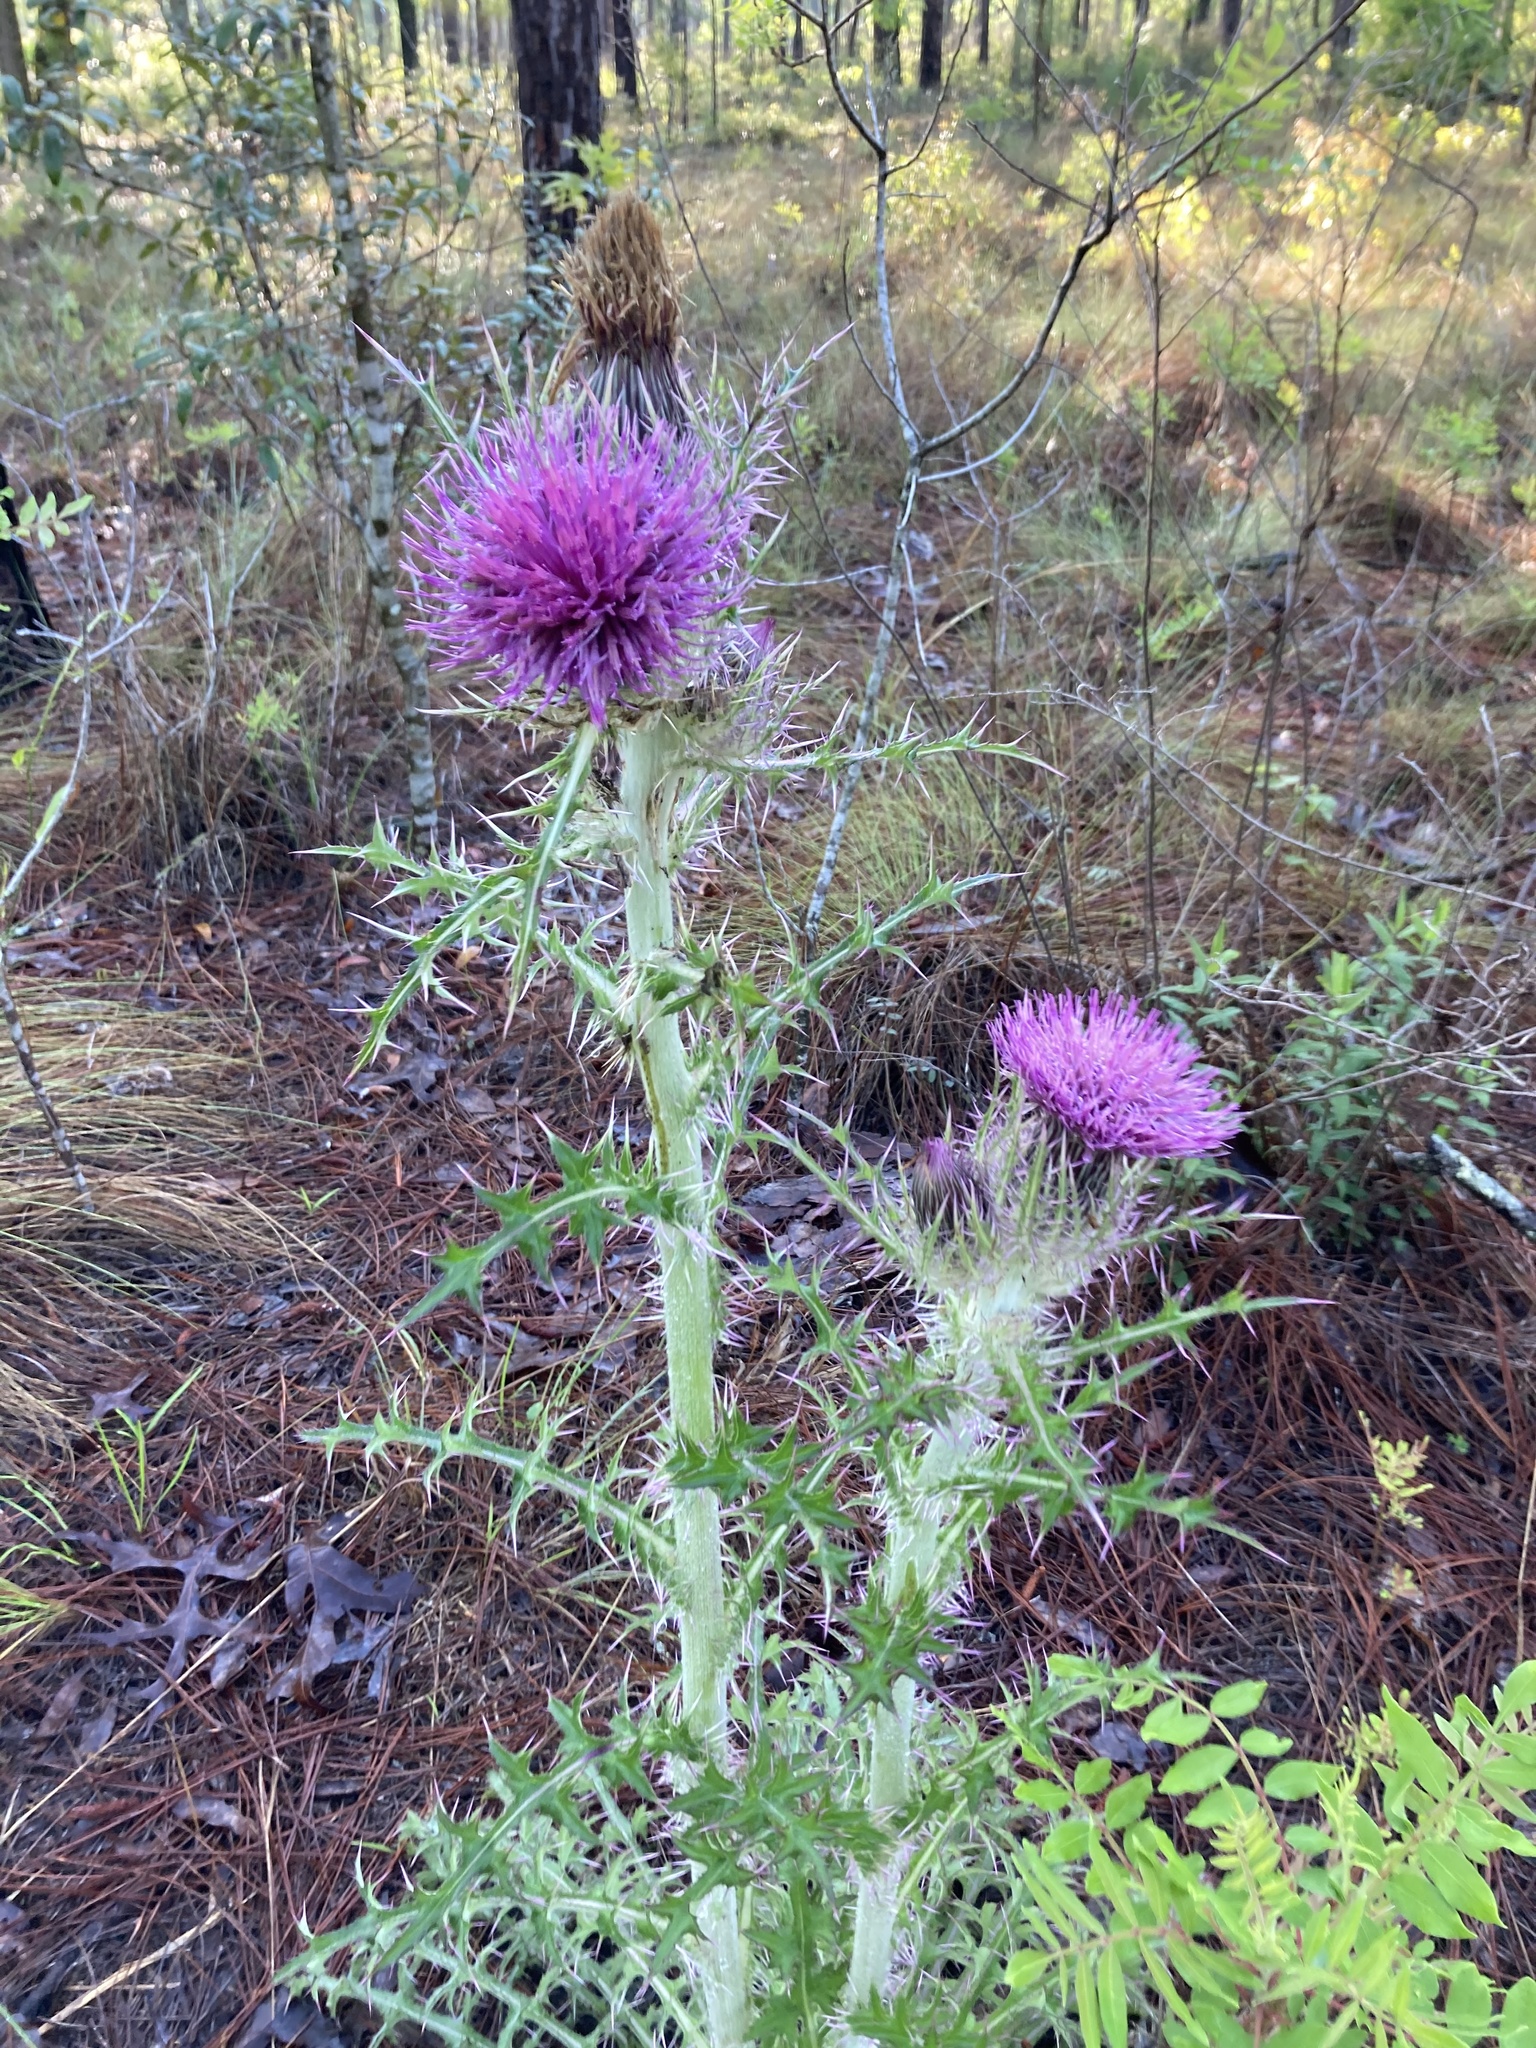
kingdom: Plantae
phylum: Tracheophyta
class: Magnoliopsida
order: Asterales
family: Asteraceae
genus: Cirsium
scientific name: Cirsium horridulum
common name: Bristly thistle
